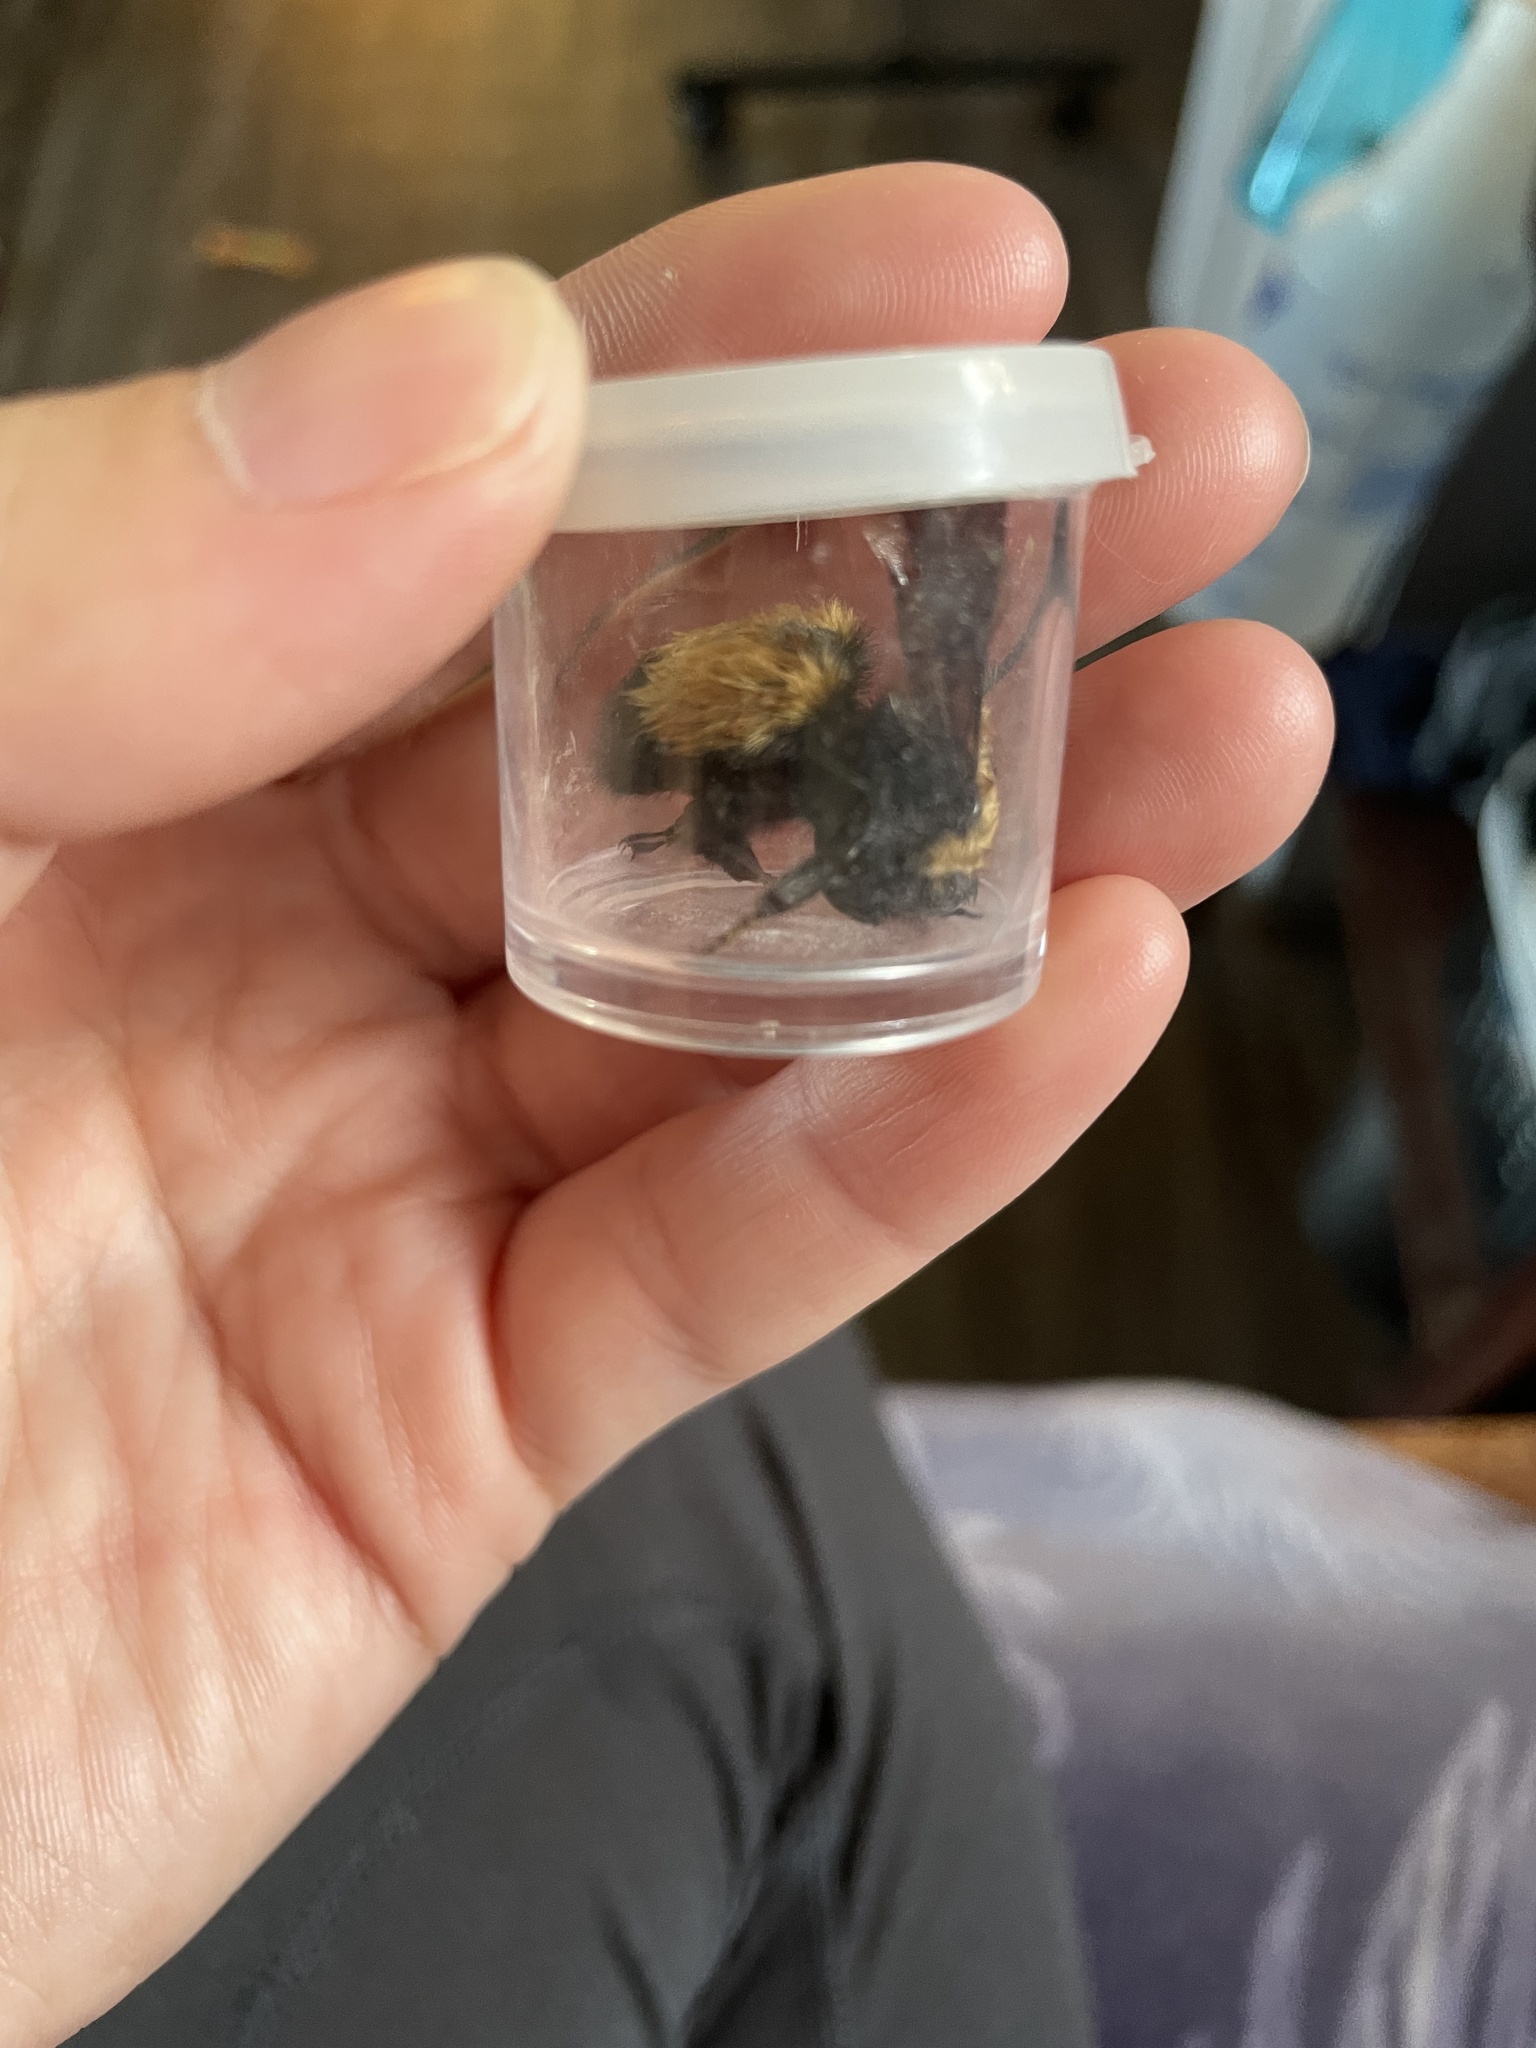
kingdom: Animalia
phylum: Arthropoda
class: Insecta
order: Hymenoptera
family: Apidae
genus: Bombus
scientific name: Bombus nevadensis
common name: Nevada bumble bee
